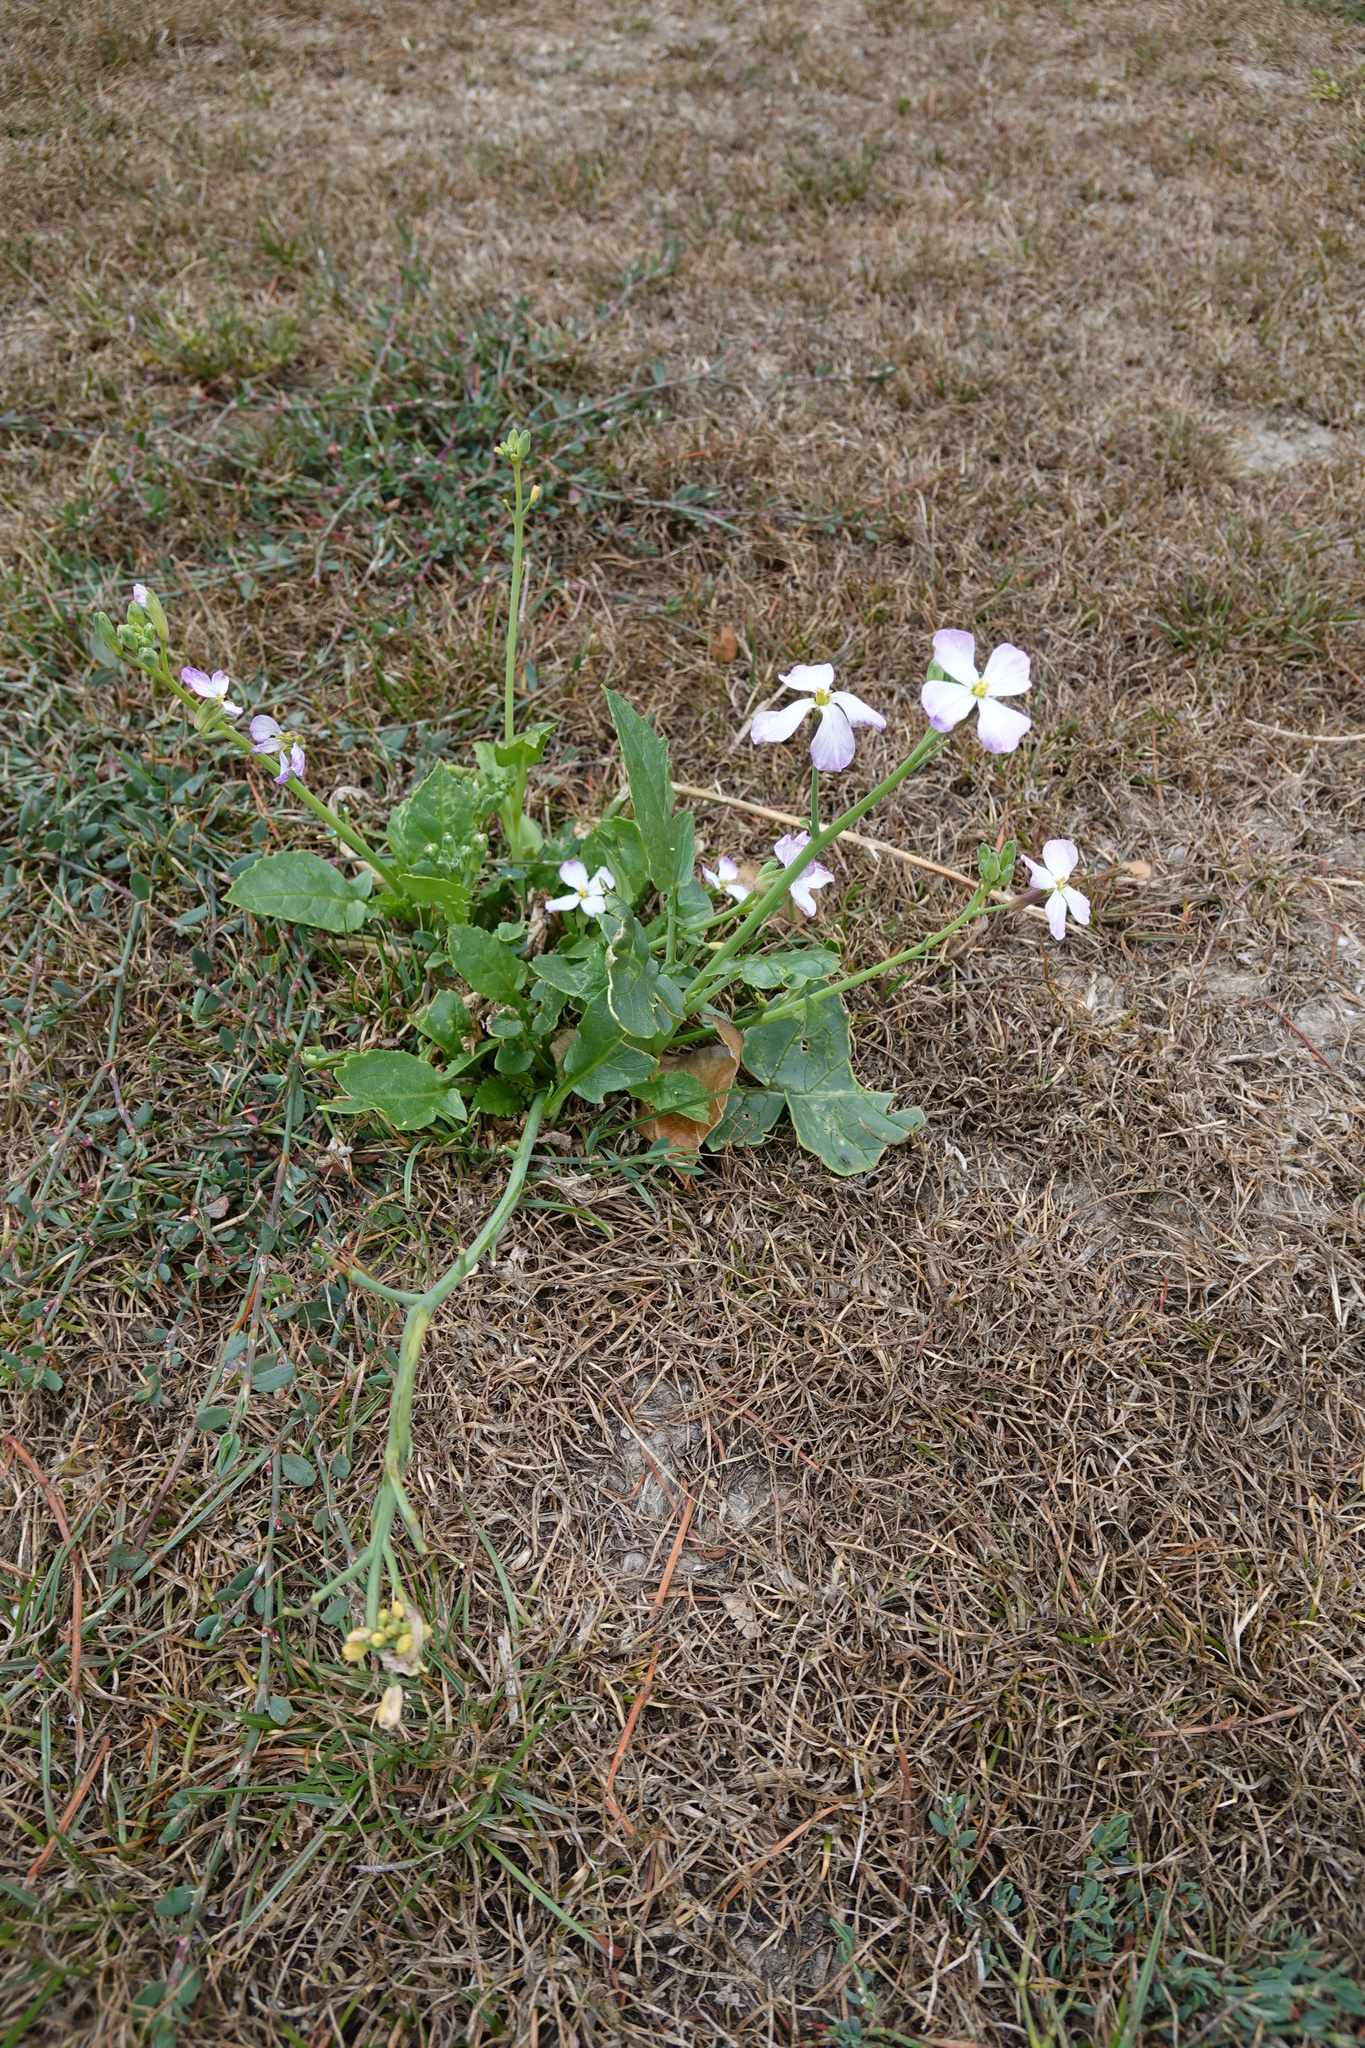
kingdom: Plantae
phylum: Tracheophyta
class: Magnoliopsida
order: Brassicales
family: Brassicaceae
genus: Raphanus
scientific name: Raphanus sativus
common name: Cultivated radish
